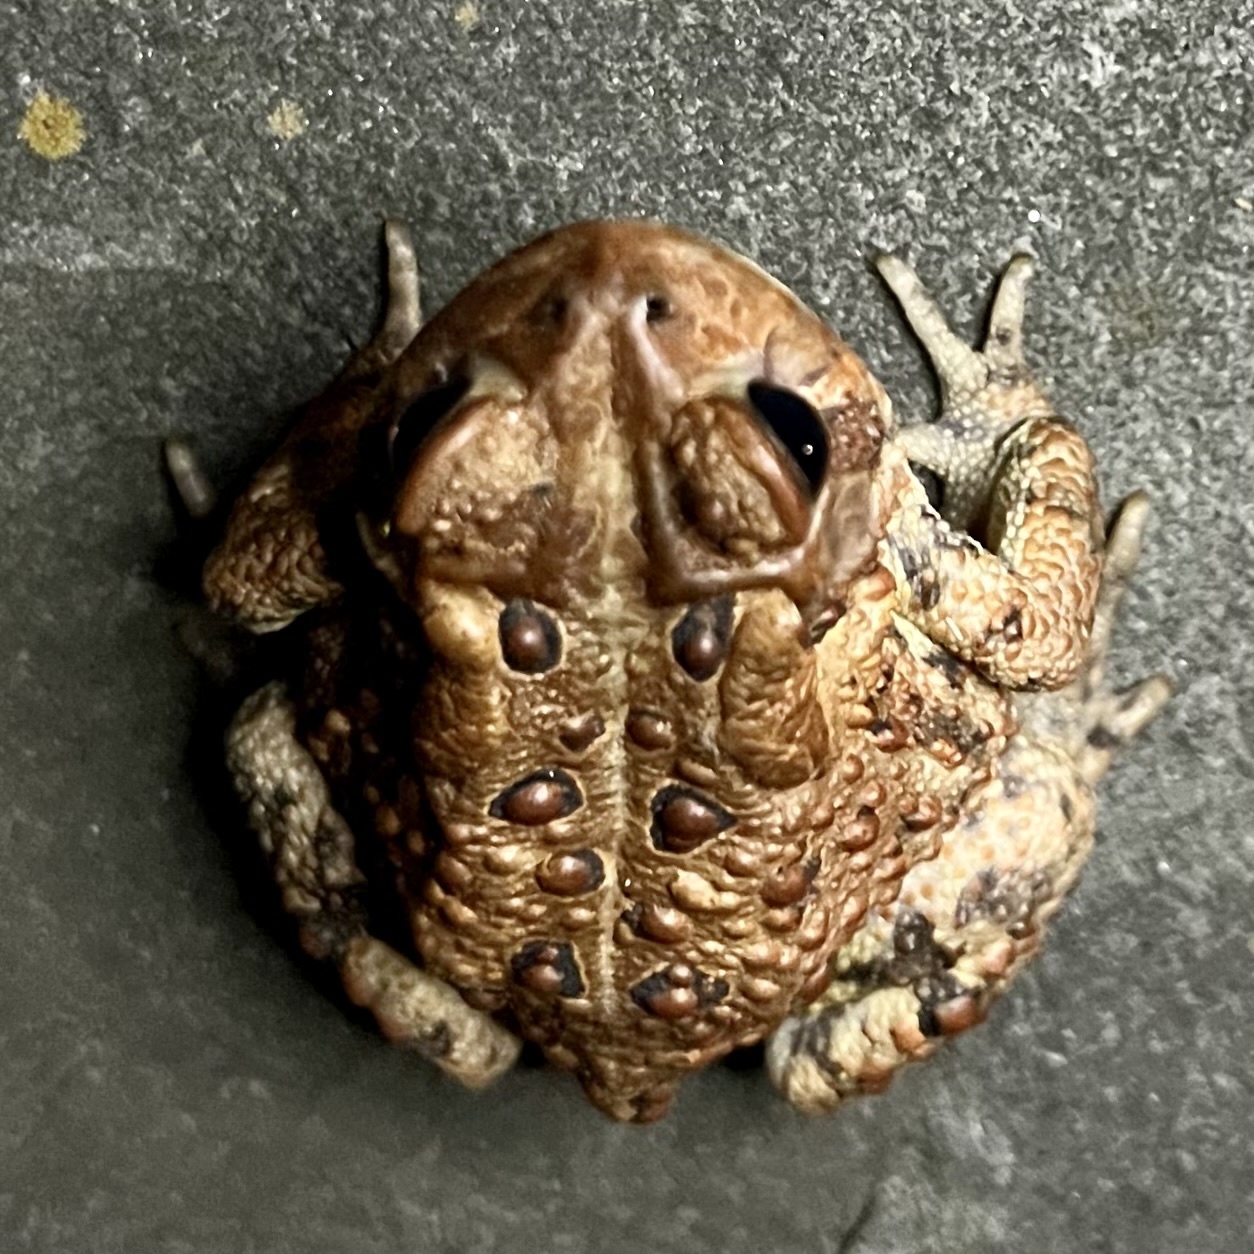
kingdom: Animalia
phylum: Chordata
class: Amphibia
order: Anura
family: Bufonidae
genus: Anaxyrus
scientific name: Anaxyrus americanus
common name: American toad
